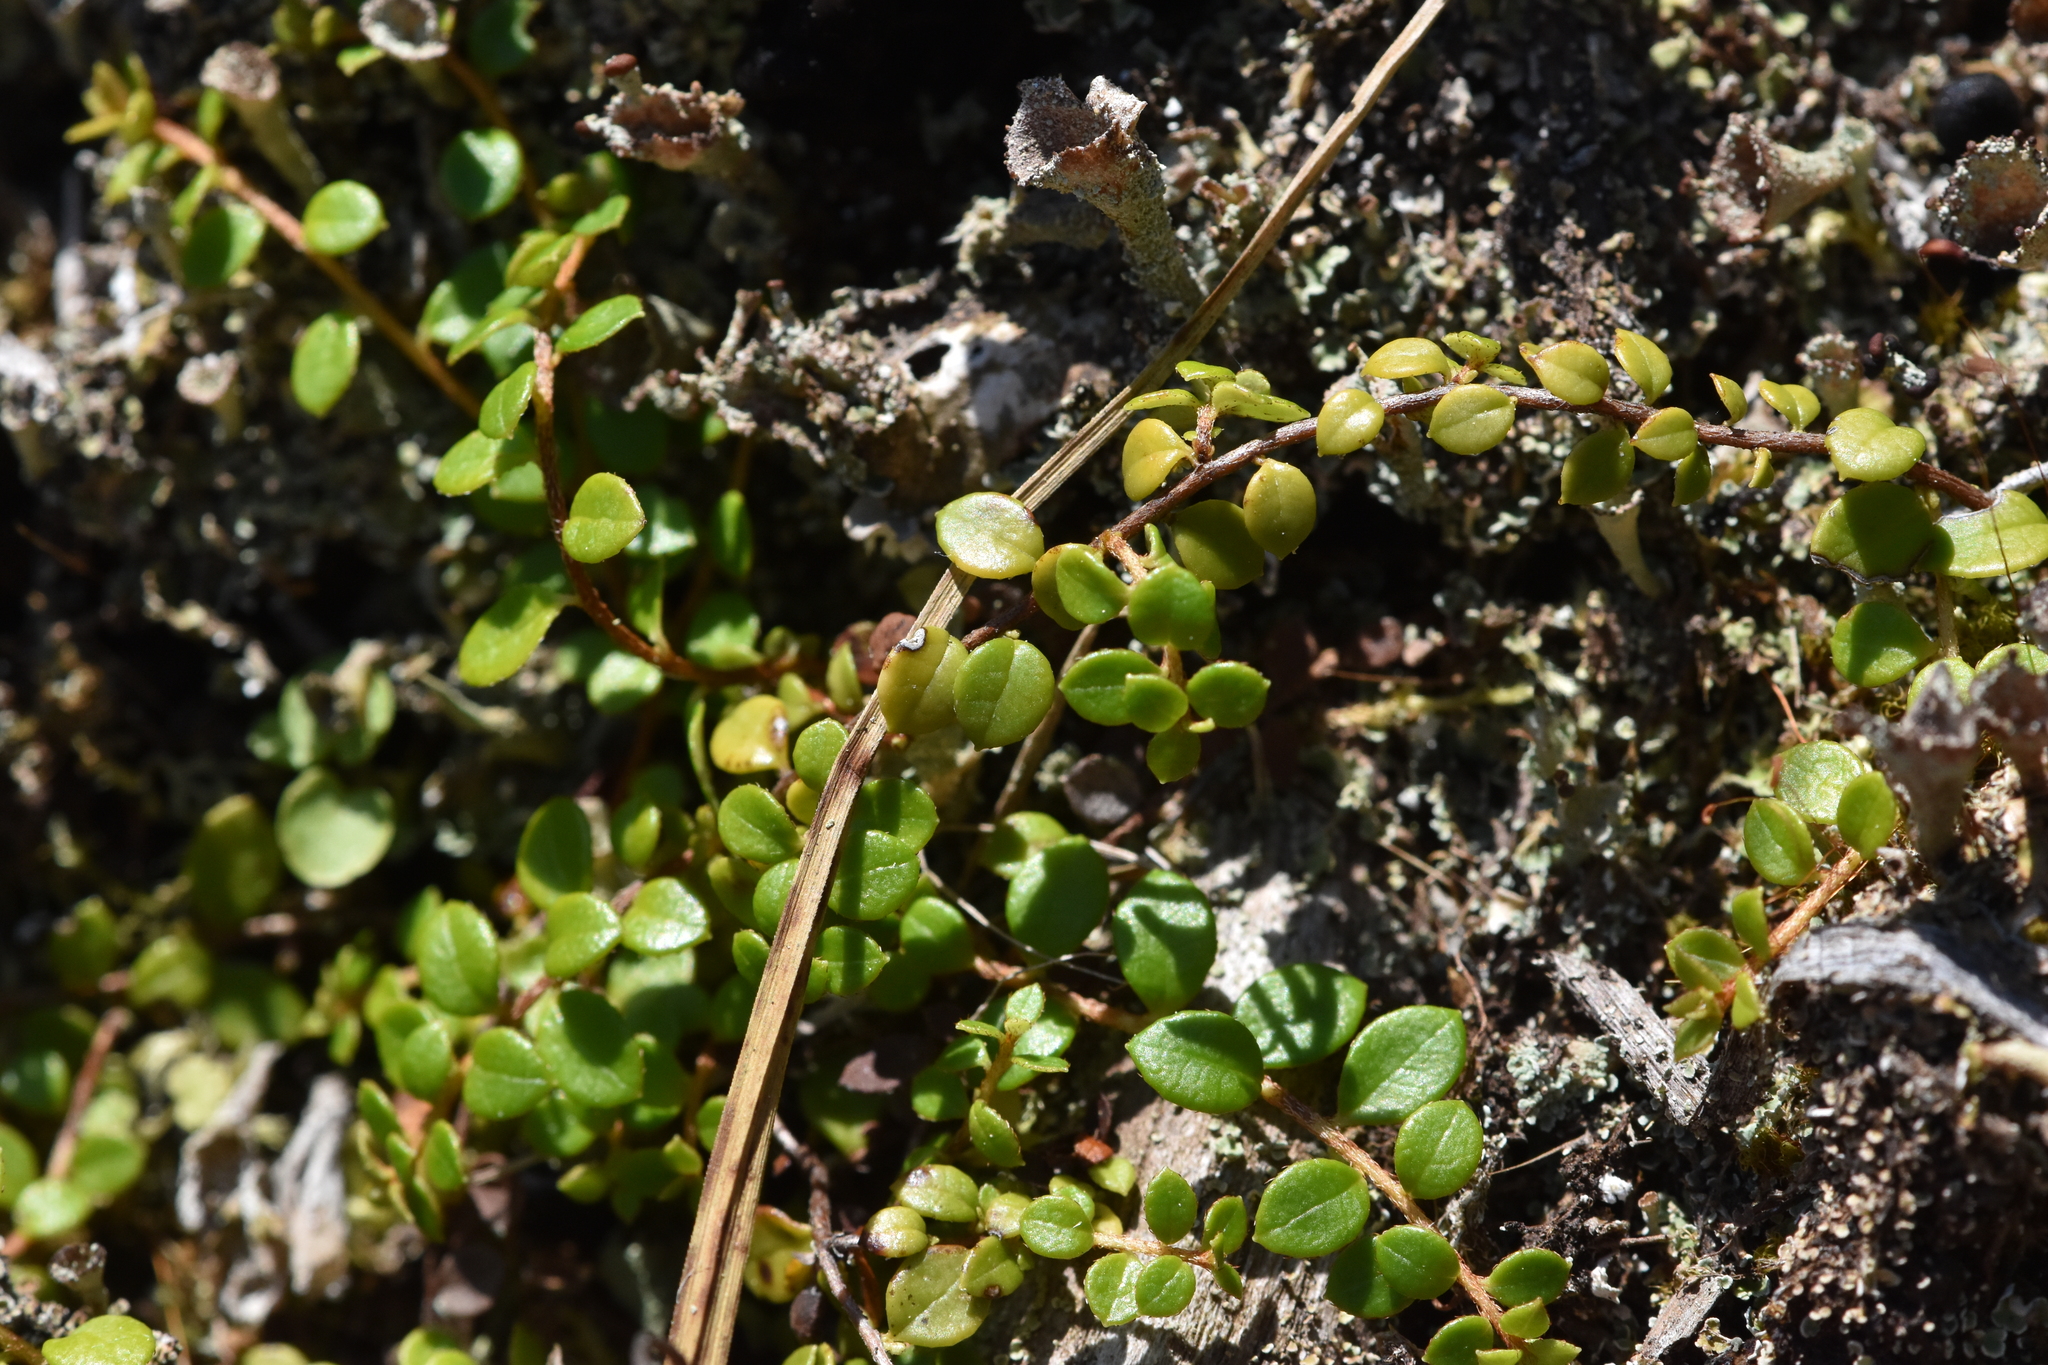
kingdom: Plantae
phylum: Tracheophyta
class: Magnoliopsida
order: Ericales
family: Ericaceae
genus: Gaultheria
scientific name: Gaultheria hispidula
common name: Cancer wintergreen
